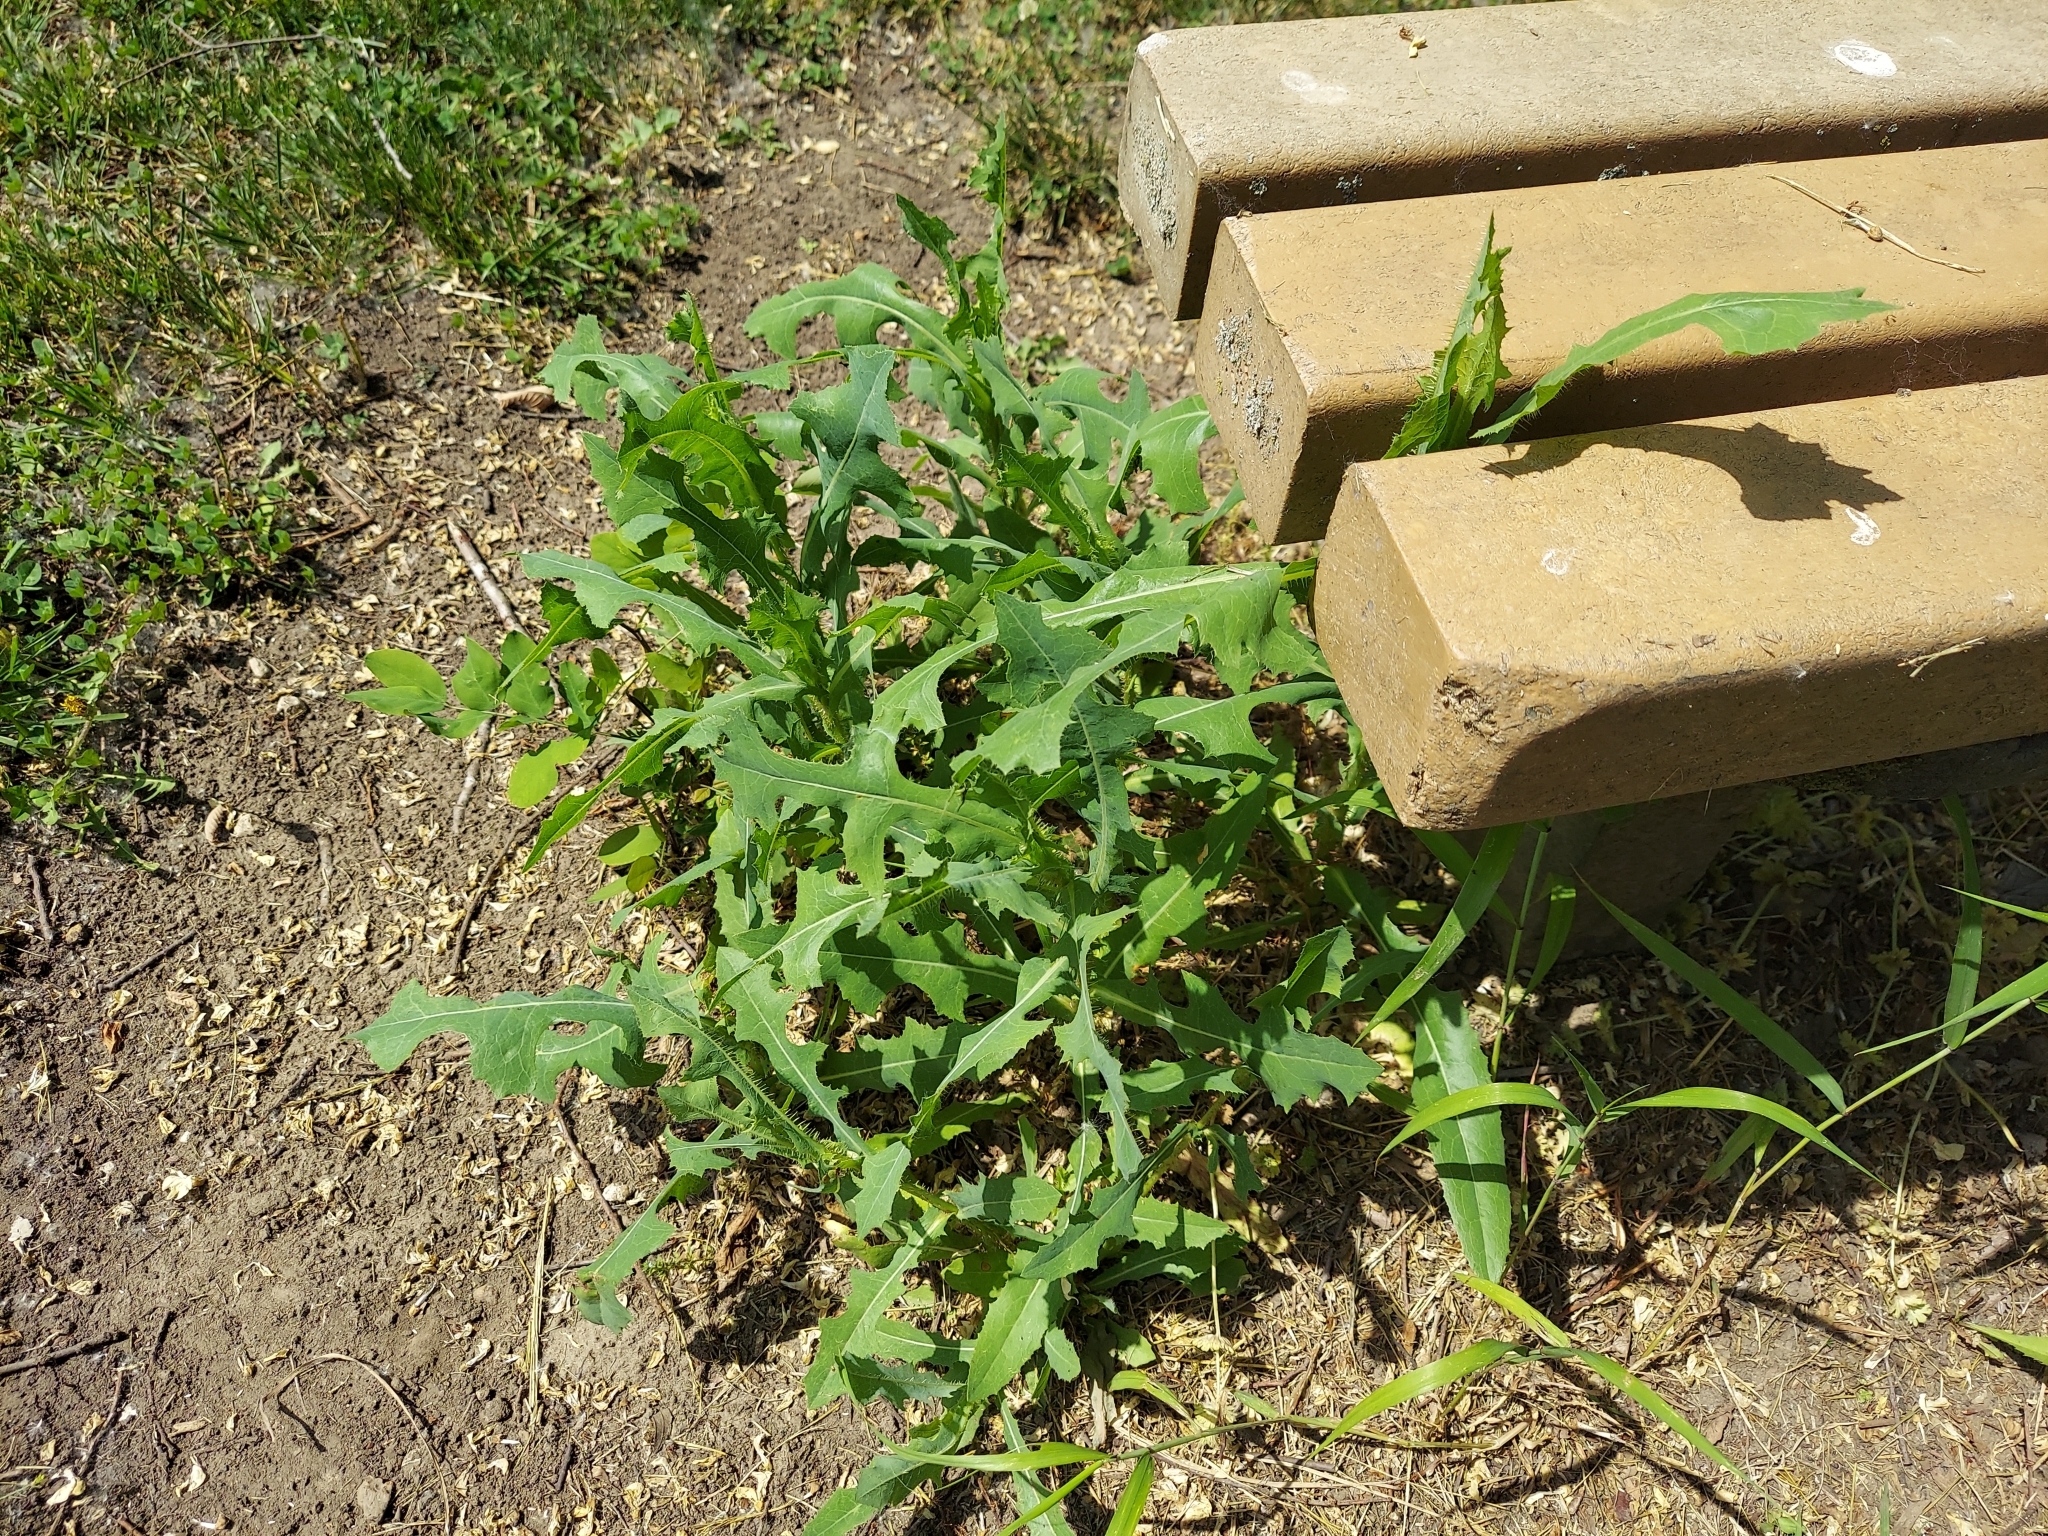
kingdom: Plantae
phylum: Tracheophyta
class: Magnoliopsida
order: Asterales
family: Asteraceae
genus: Lactuca
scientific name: Lactuca serriola
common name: Prickly lettuce
